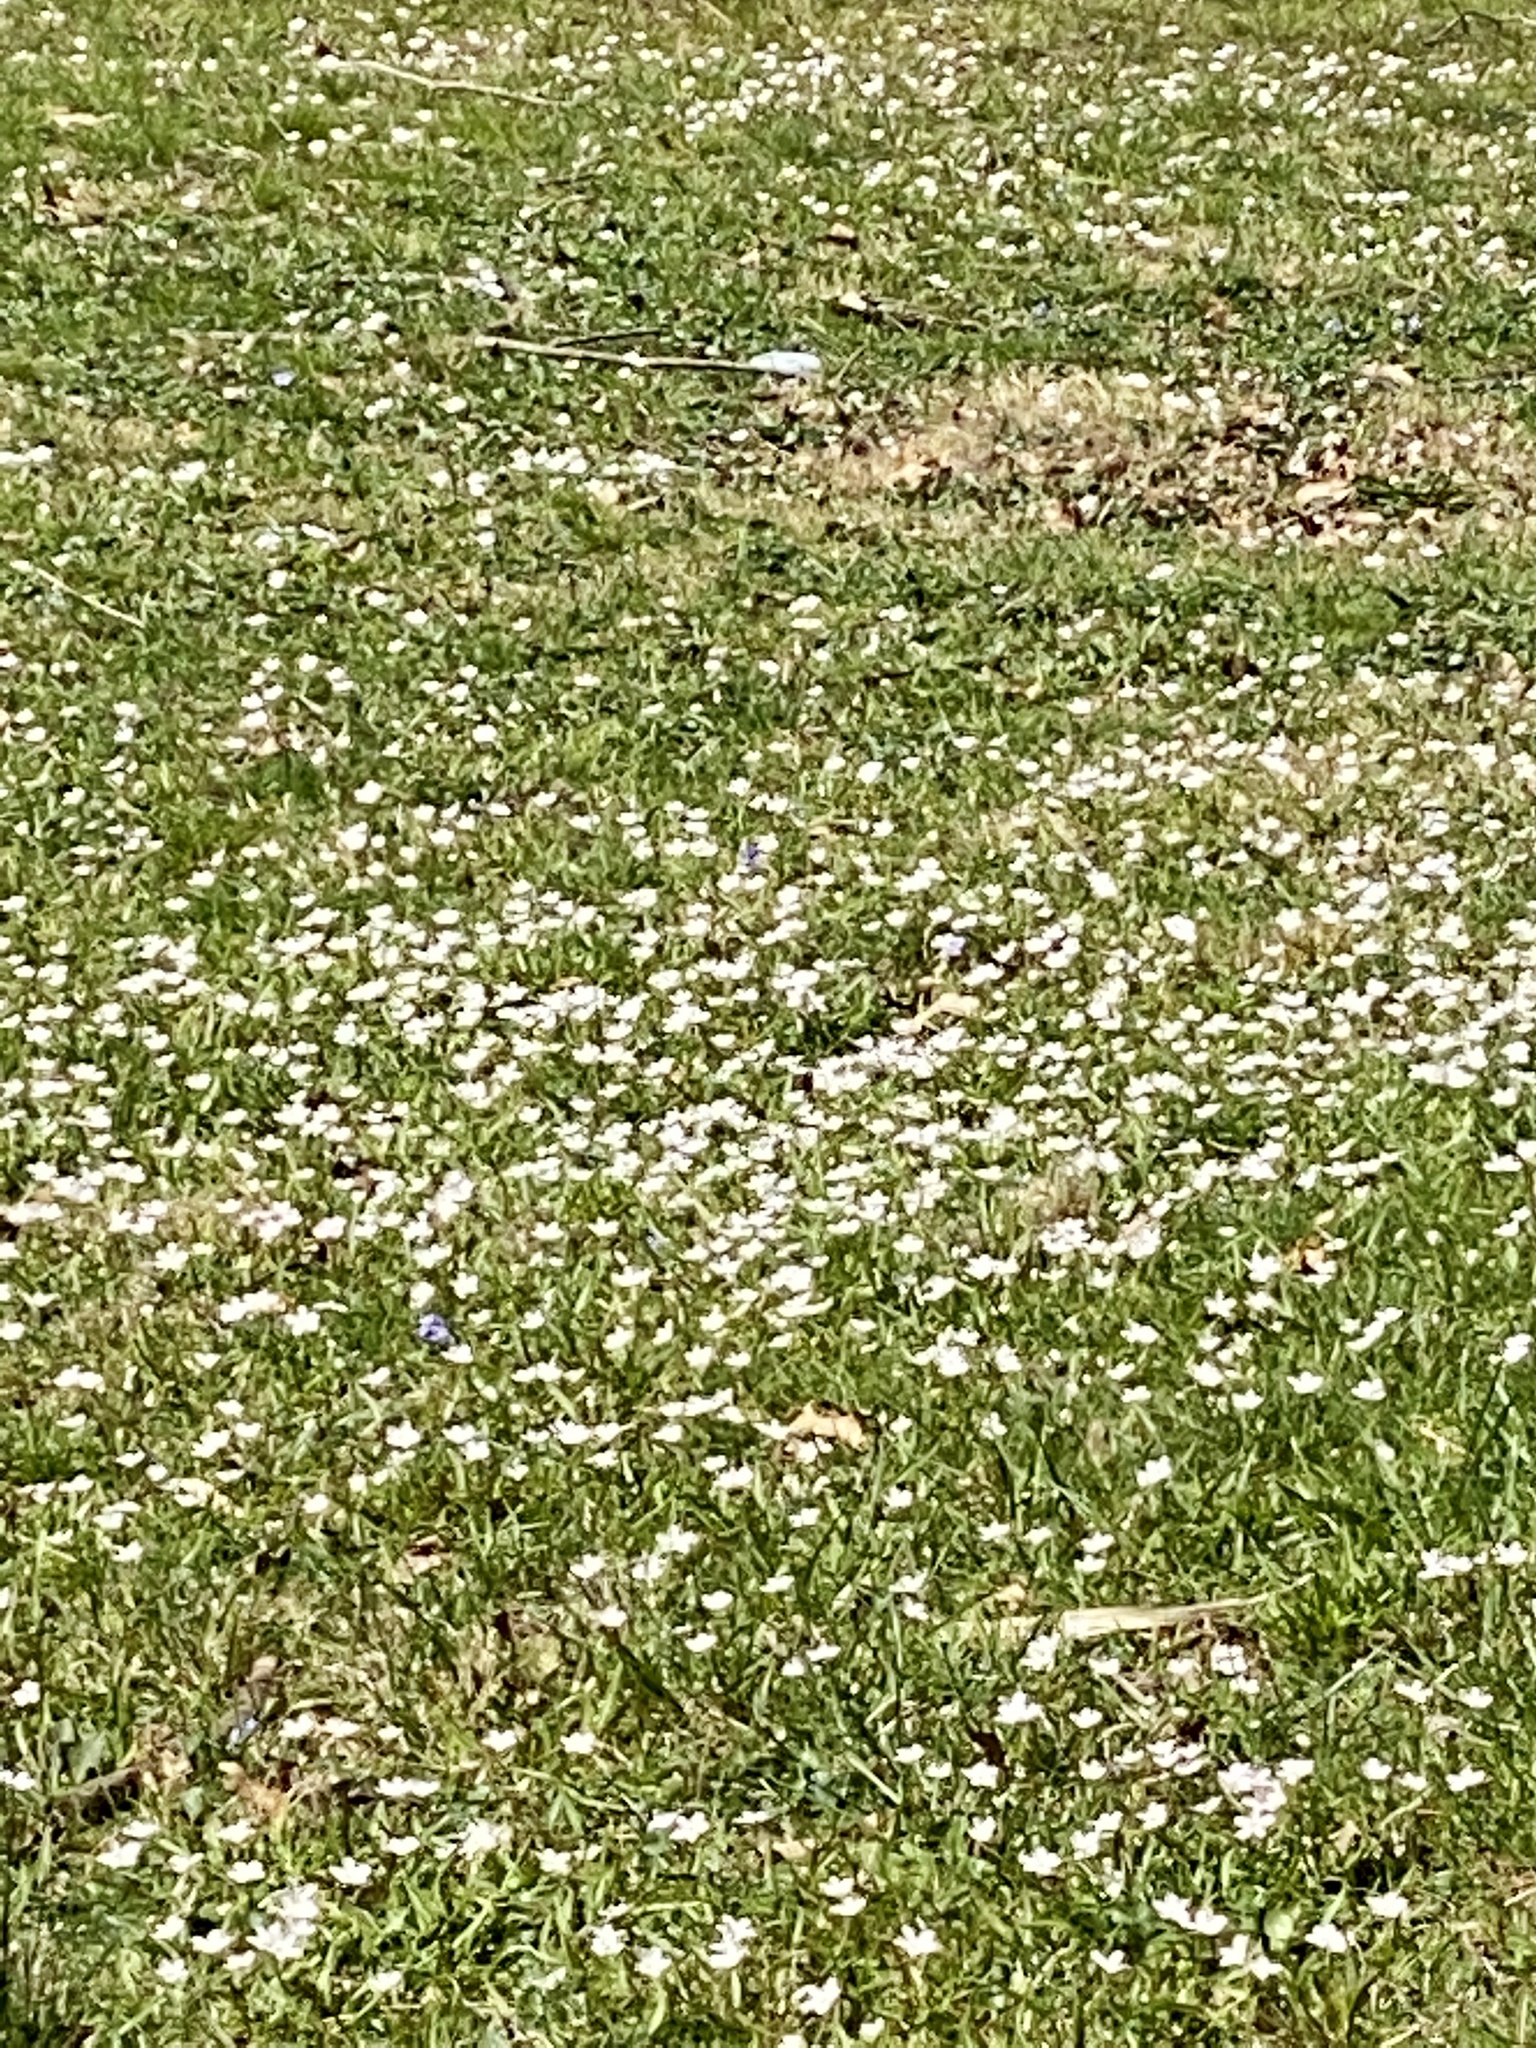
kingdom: Plantae
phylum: Tracheophyta
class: Magnoliopsida
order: Caryophyllales
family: Montiaceae
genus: Claytonia
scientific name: Claytonia virginica
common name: Virginia springbeauty
